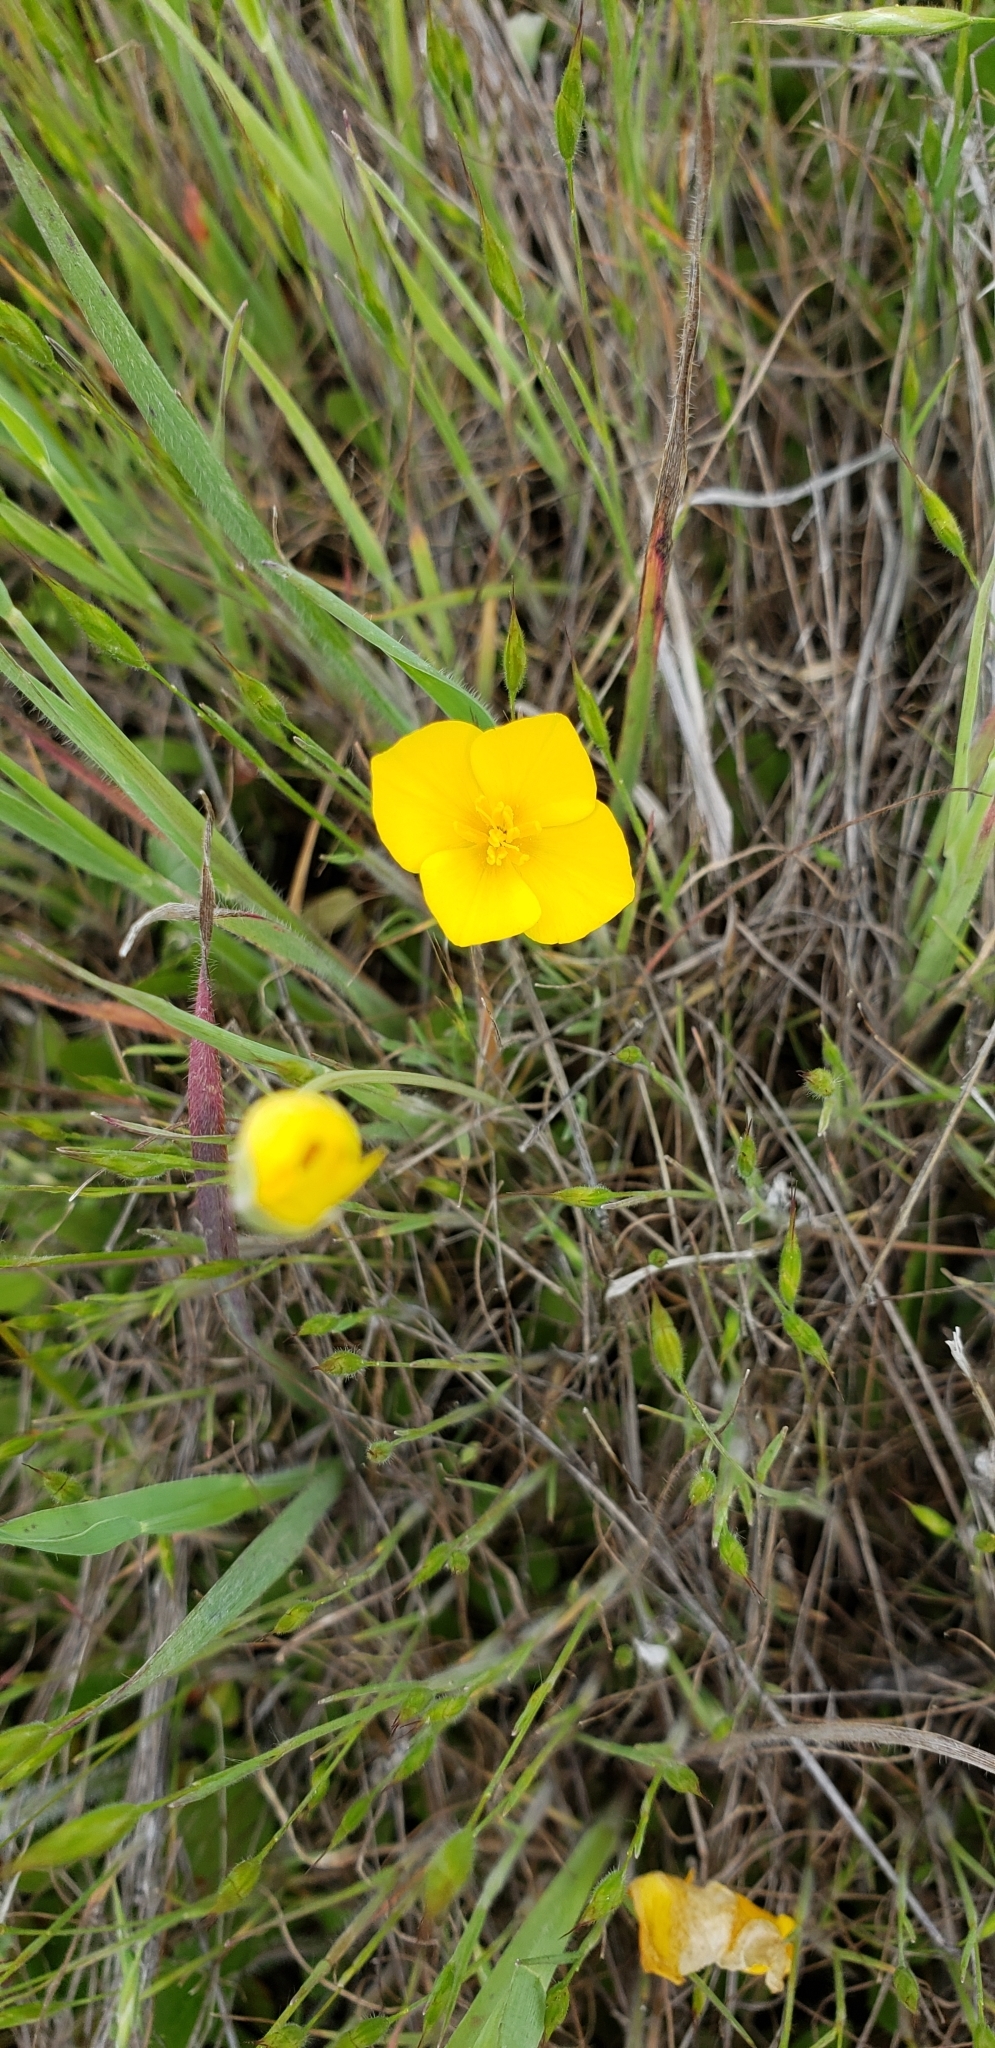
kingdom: Plantae
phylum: Tracheophyta
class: Magnoliopsida
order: Ranunculales
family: Papaveraceae
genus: Eschscholzia
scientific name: Eschscholzia lobbii
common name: Frying-pans
